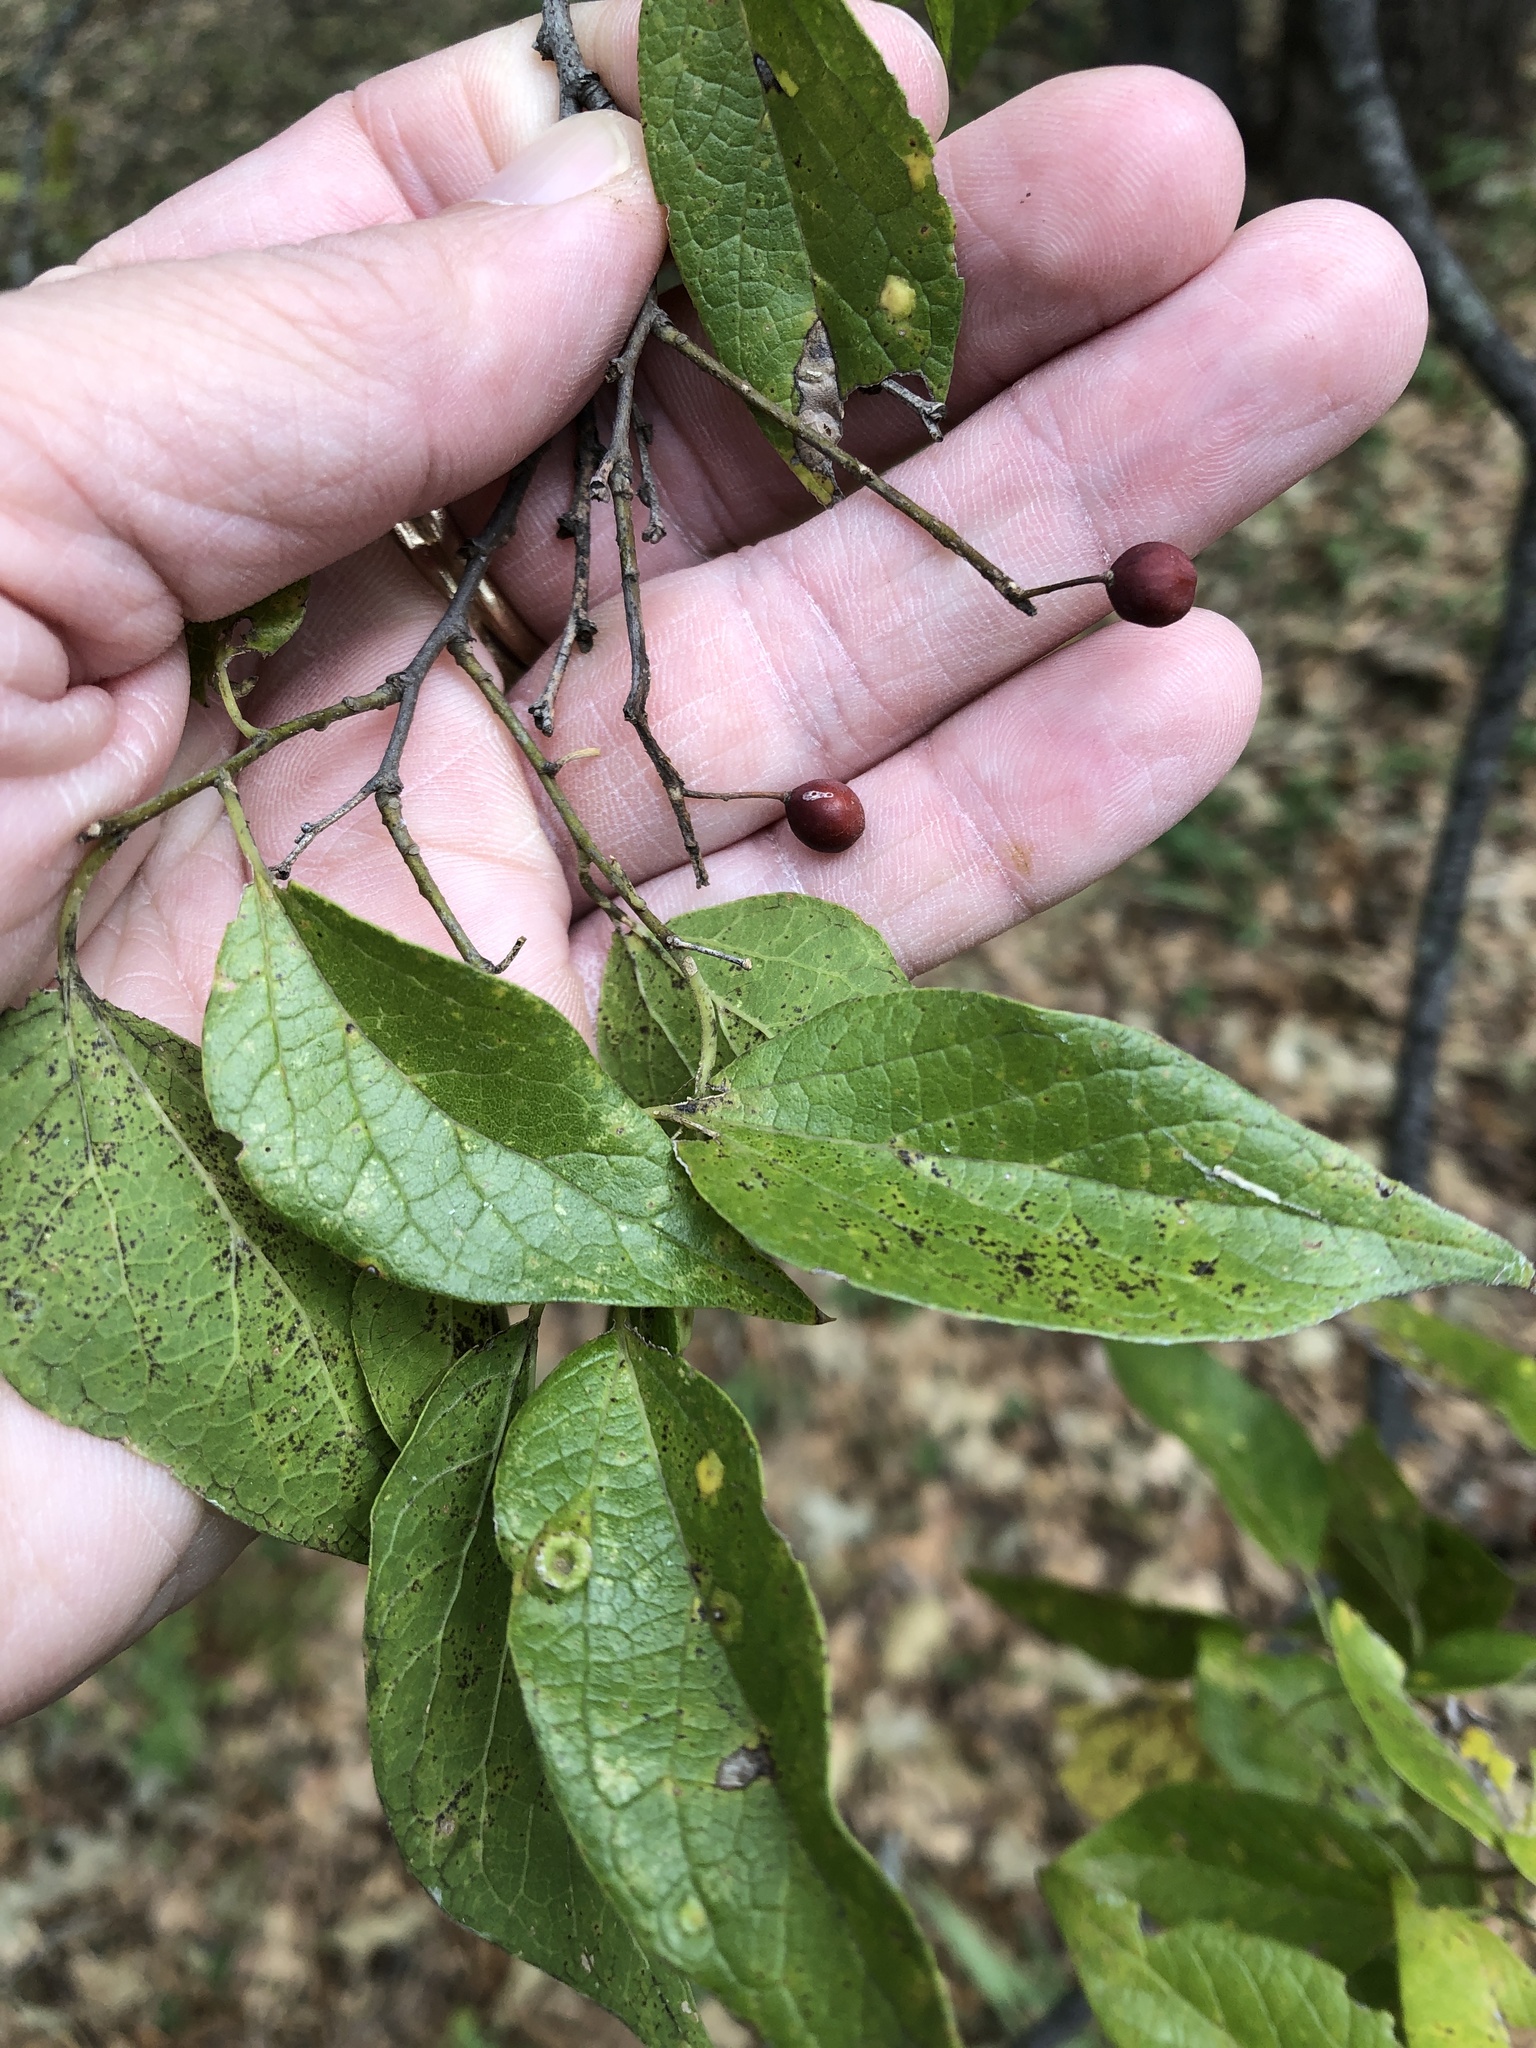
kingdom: Plantae
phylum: Tracheophyta
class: Magnoliopsida
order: Rosales
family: Cannabaceae
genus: Celtis
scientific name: Celtis laevigata
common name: Sugarberry
